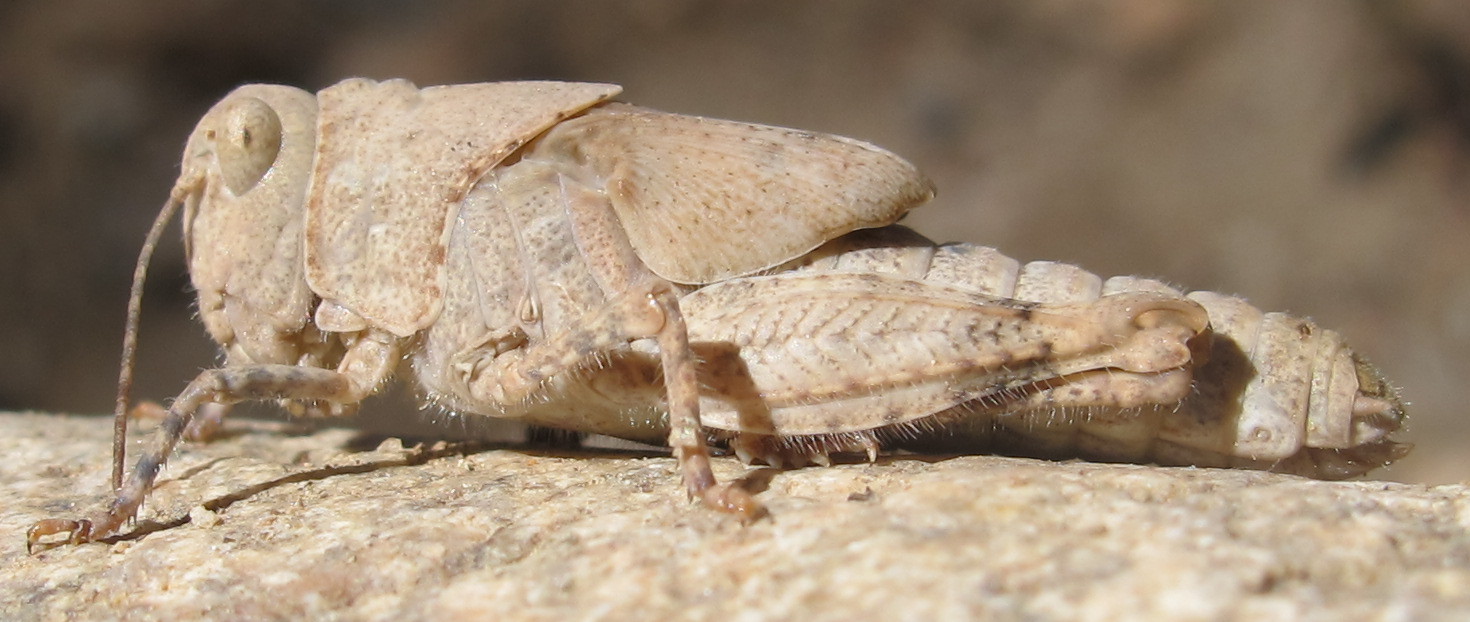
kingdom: Animalia
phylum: Arthropoda
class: Insecta
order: Orthoptera
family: Acrididae
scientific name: Acrididae
